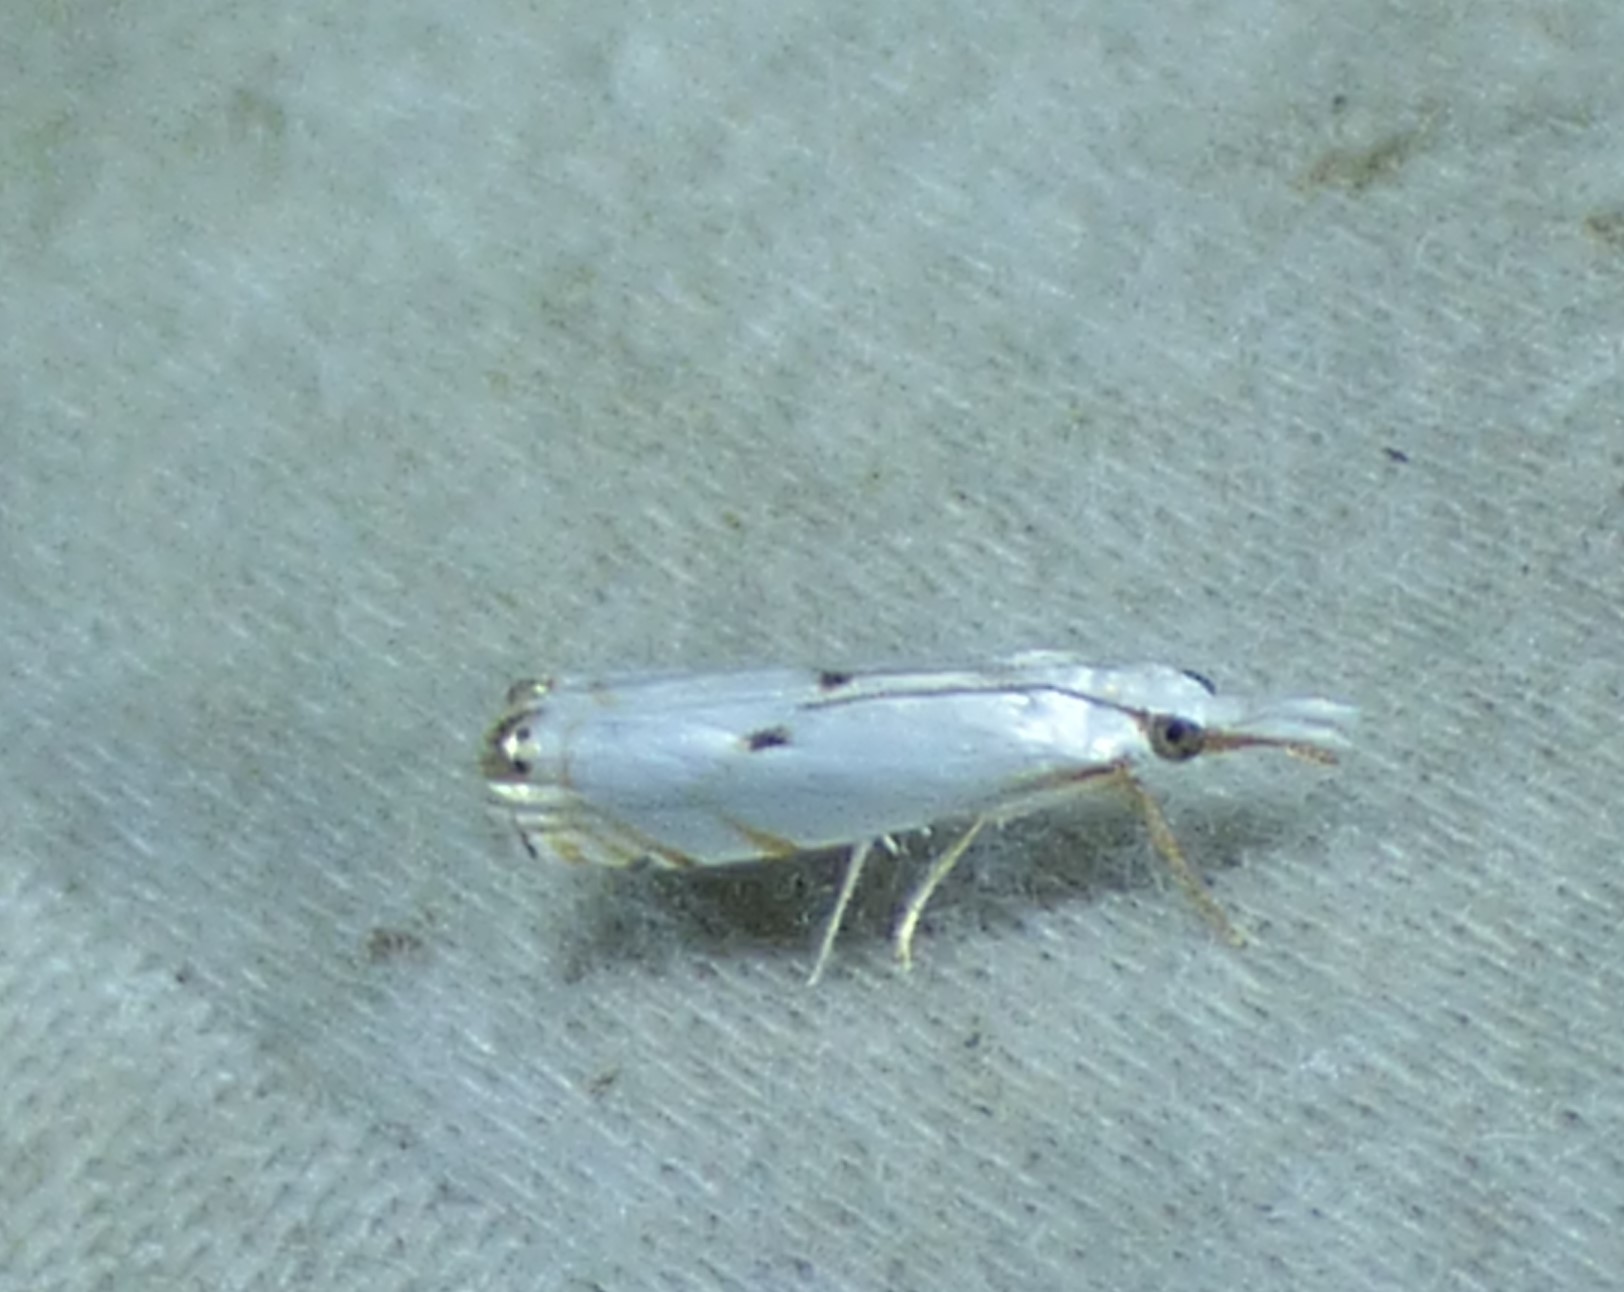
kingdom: Animalia
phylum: Arthropoda
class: Insecta
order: Lepidoptera
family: Crambidae
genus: Microcrambus
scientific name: Microcrambus biguttellus
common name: Gold-stripe grass-veneer moth
